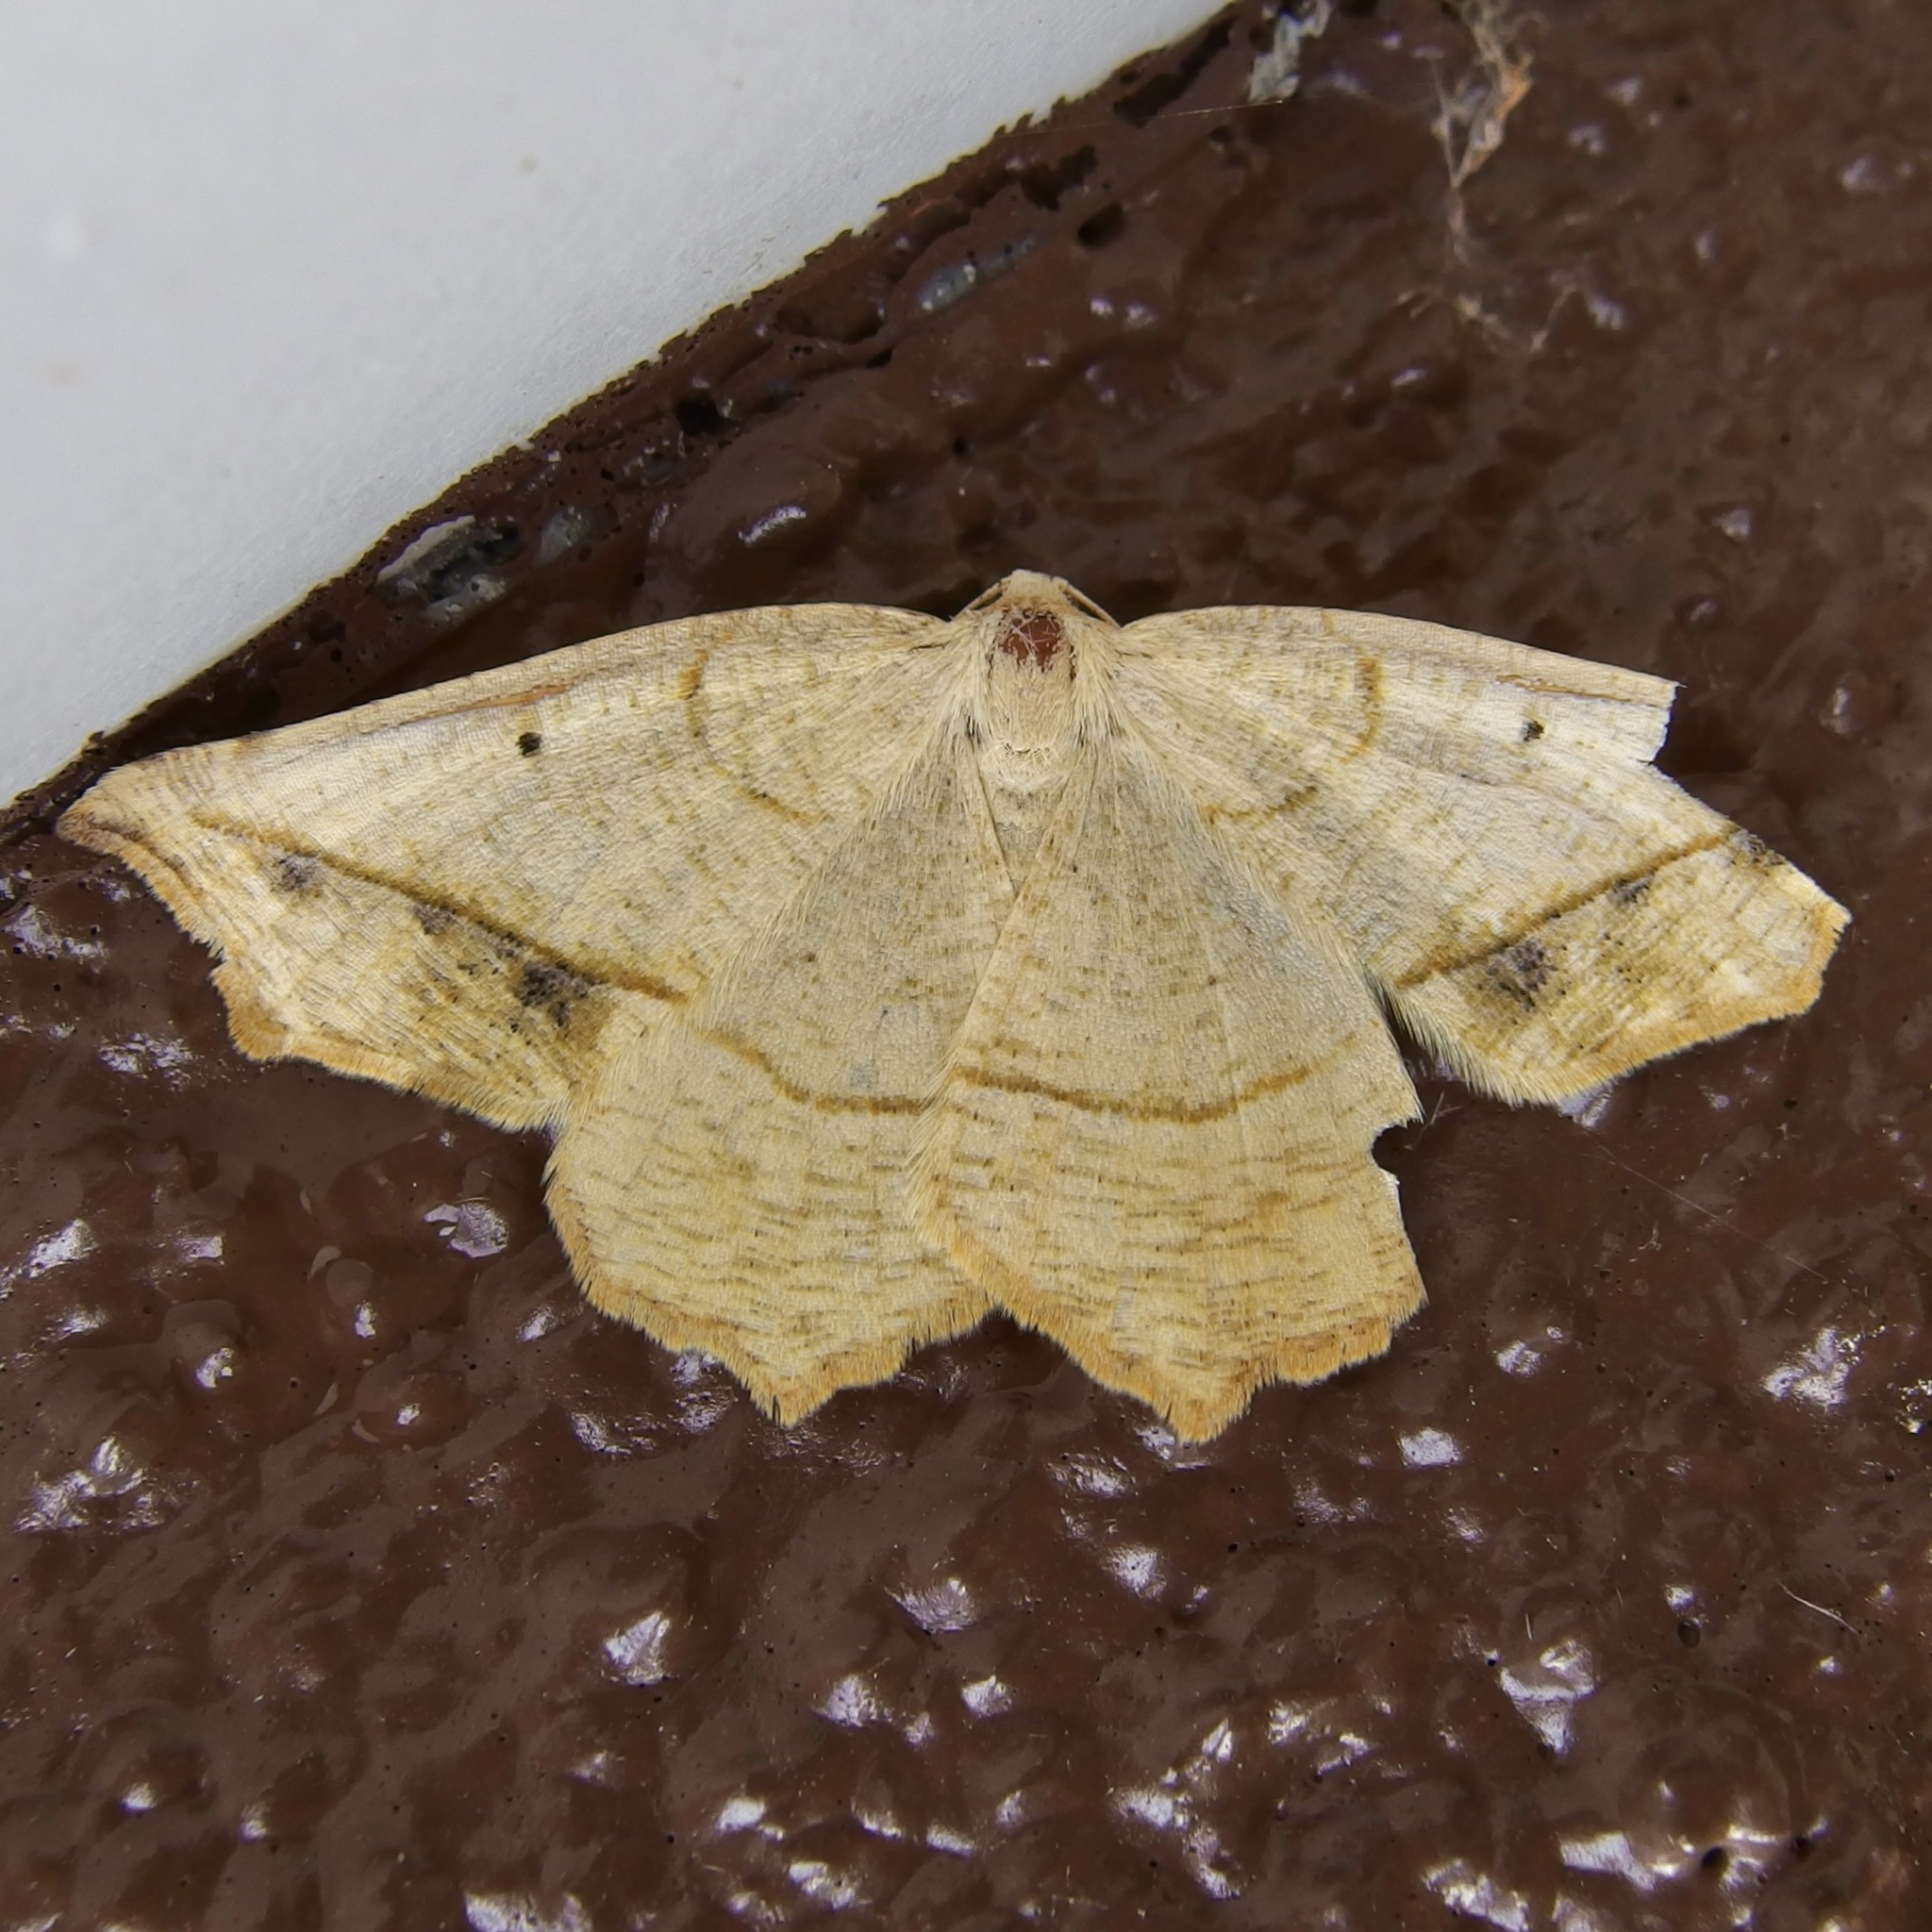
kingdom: Animalia
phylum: Arthropoda
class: Insecta
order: Lepidoptera
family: Geometridae
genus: Eusarca
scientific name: Eusarca galbanaria
